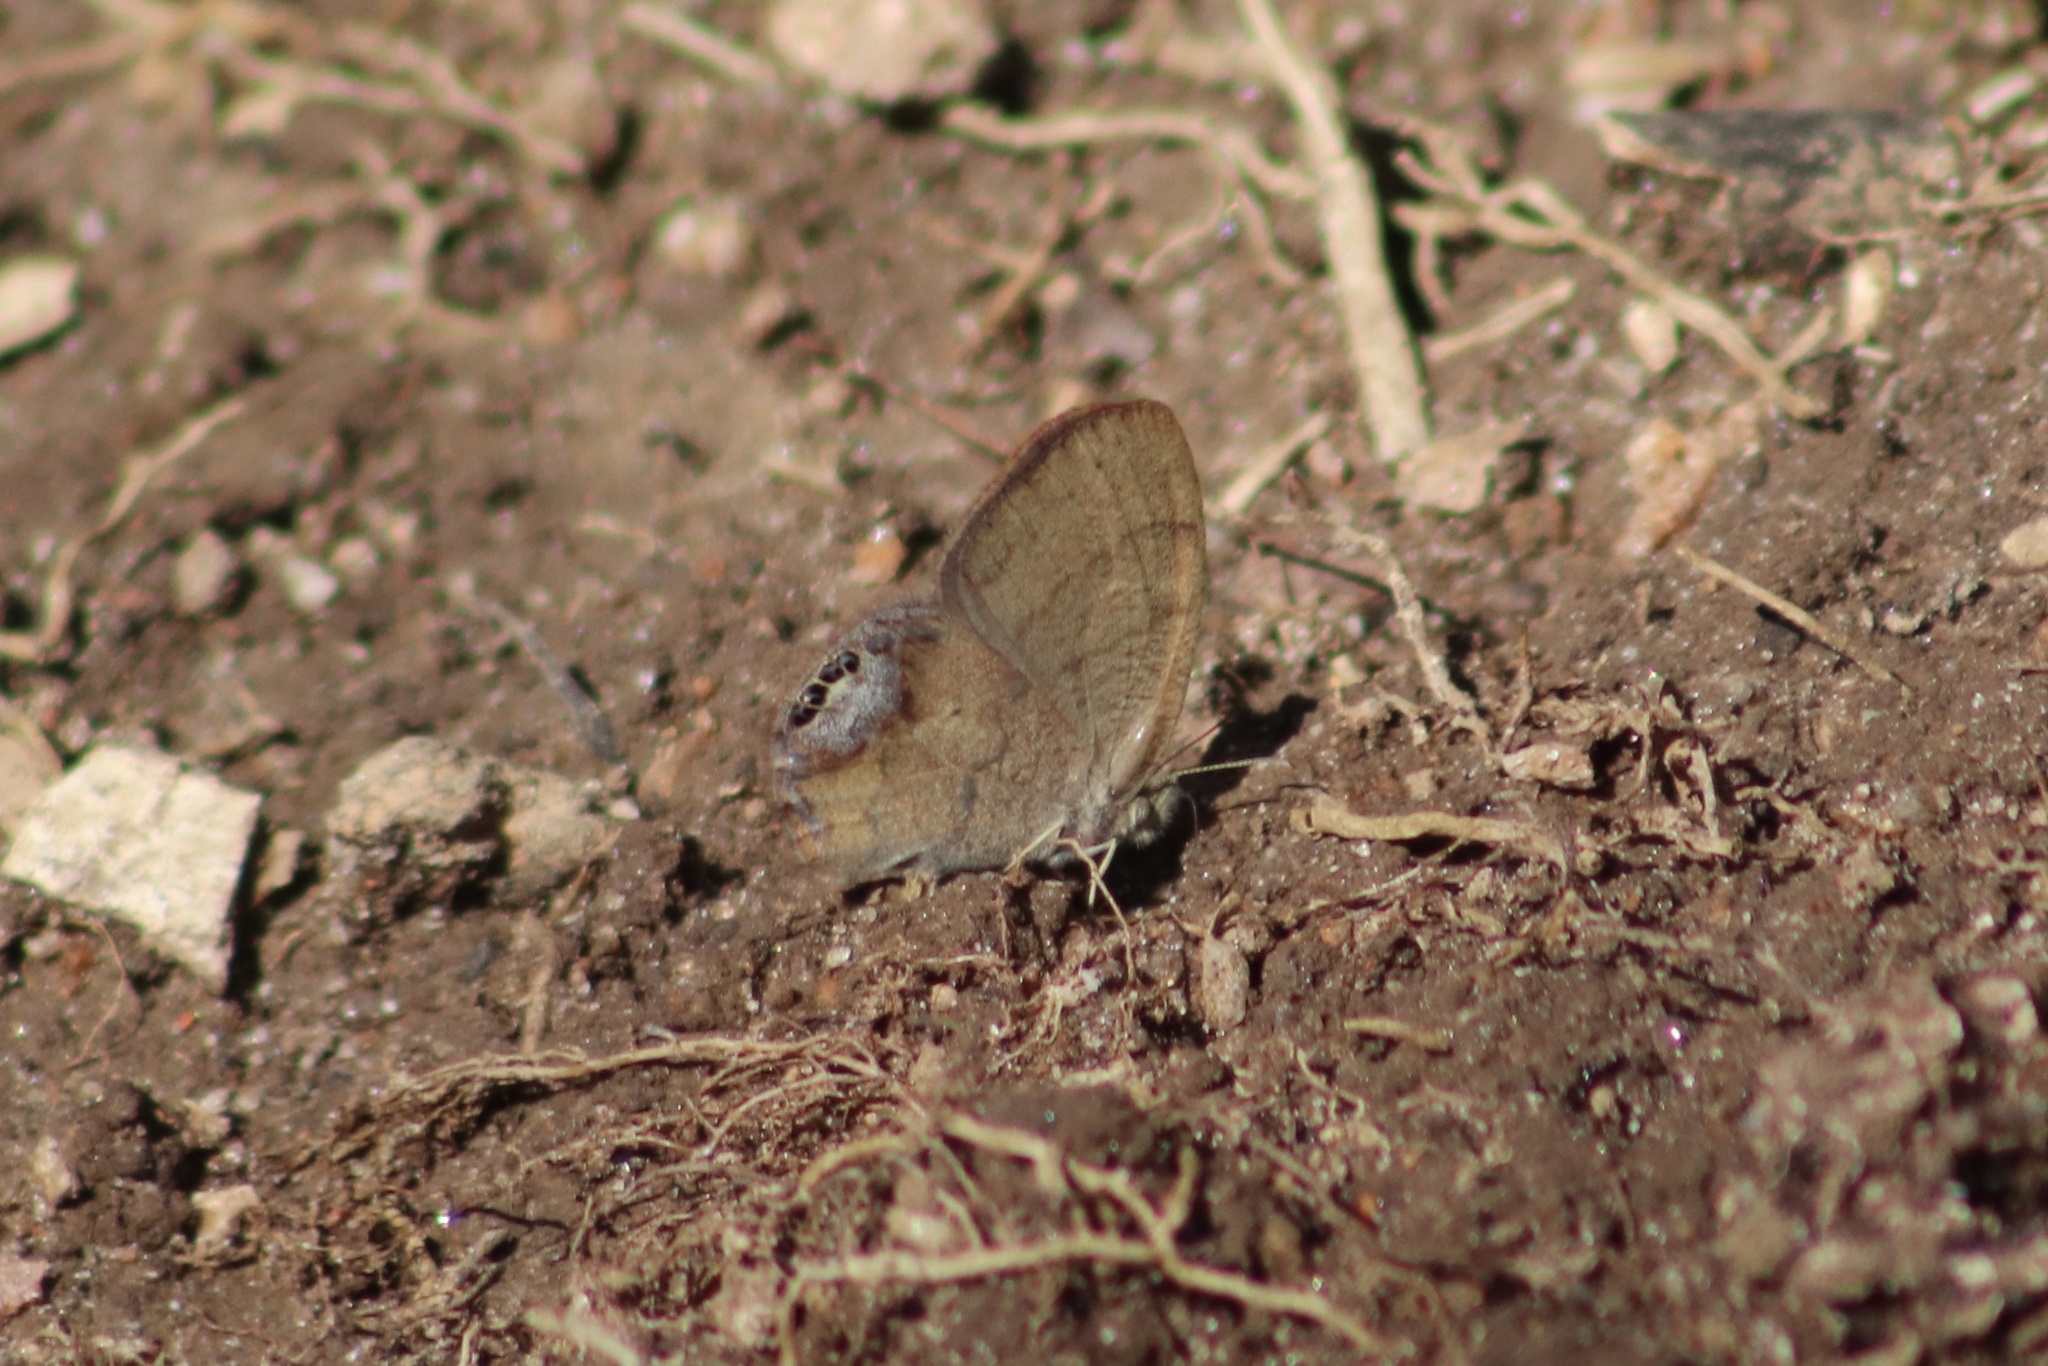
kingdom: Animalia
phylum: Arthropoda
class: Insecta
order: Lepidoptera
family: Nymphalidae
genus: Euptychia
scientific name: Euptychia cornelius
